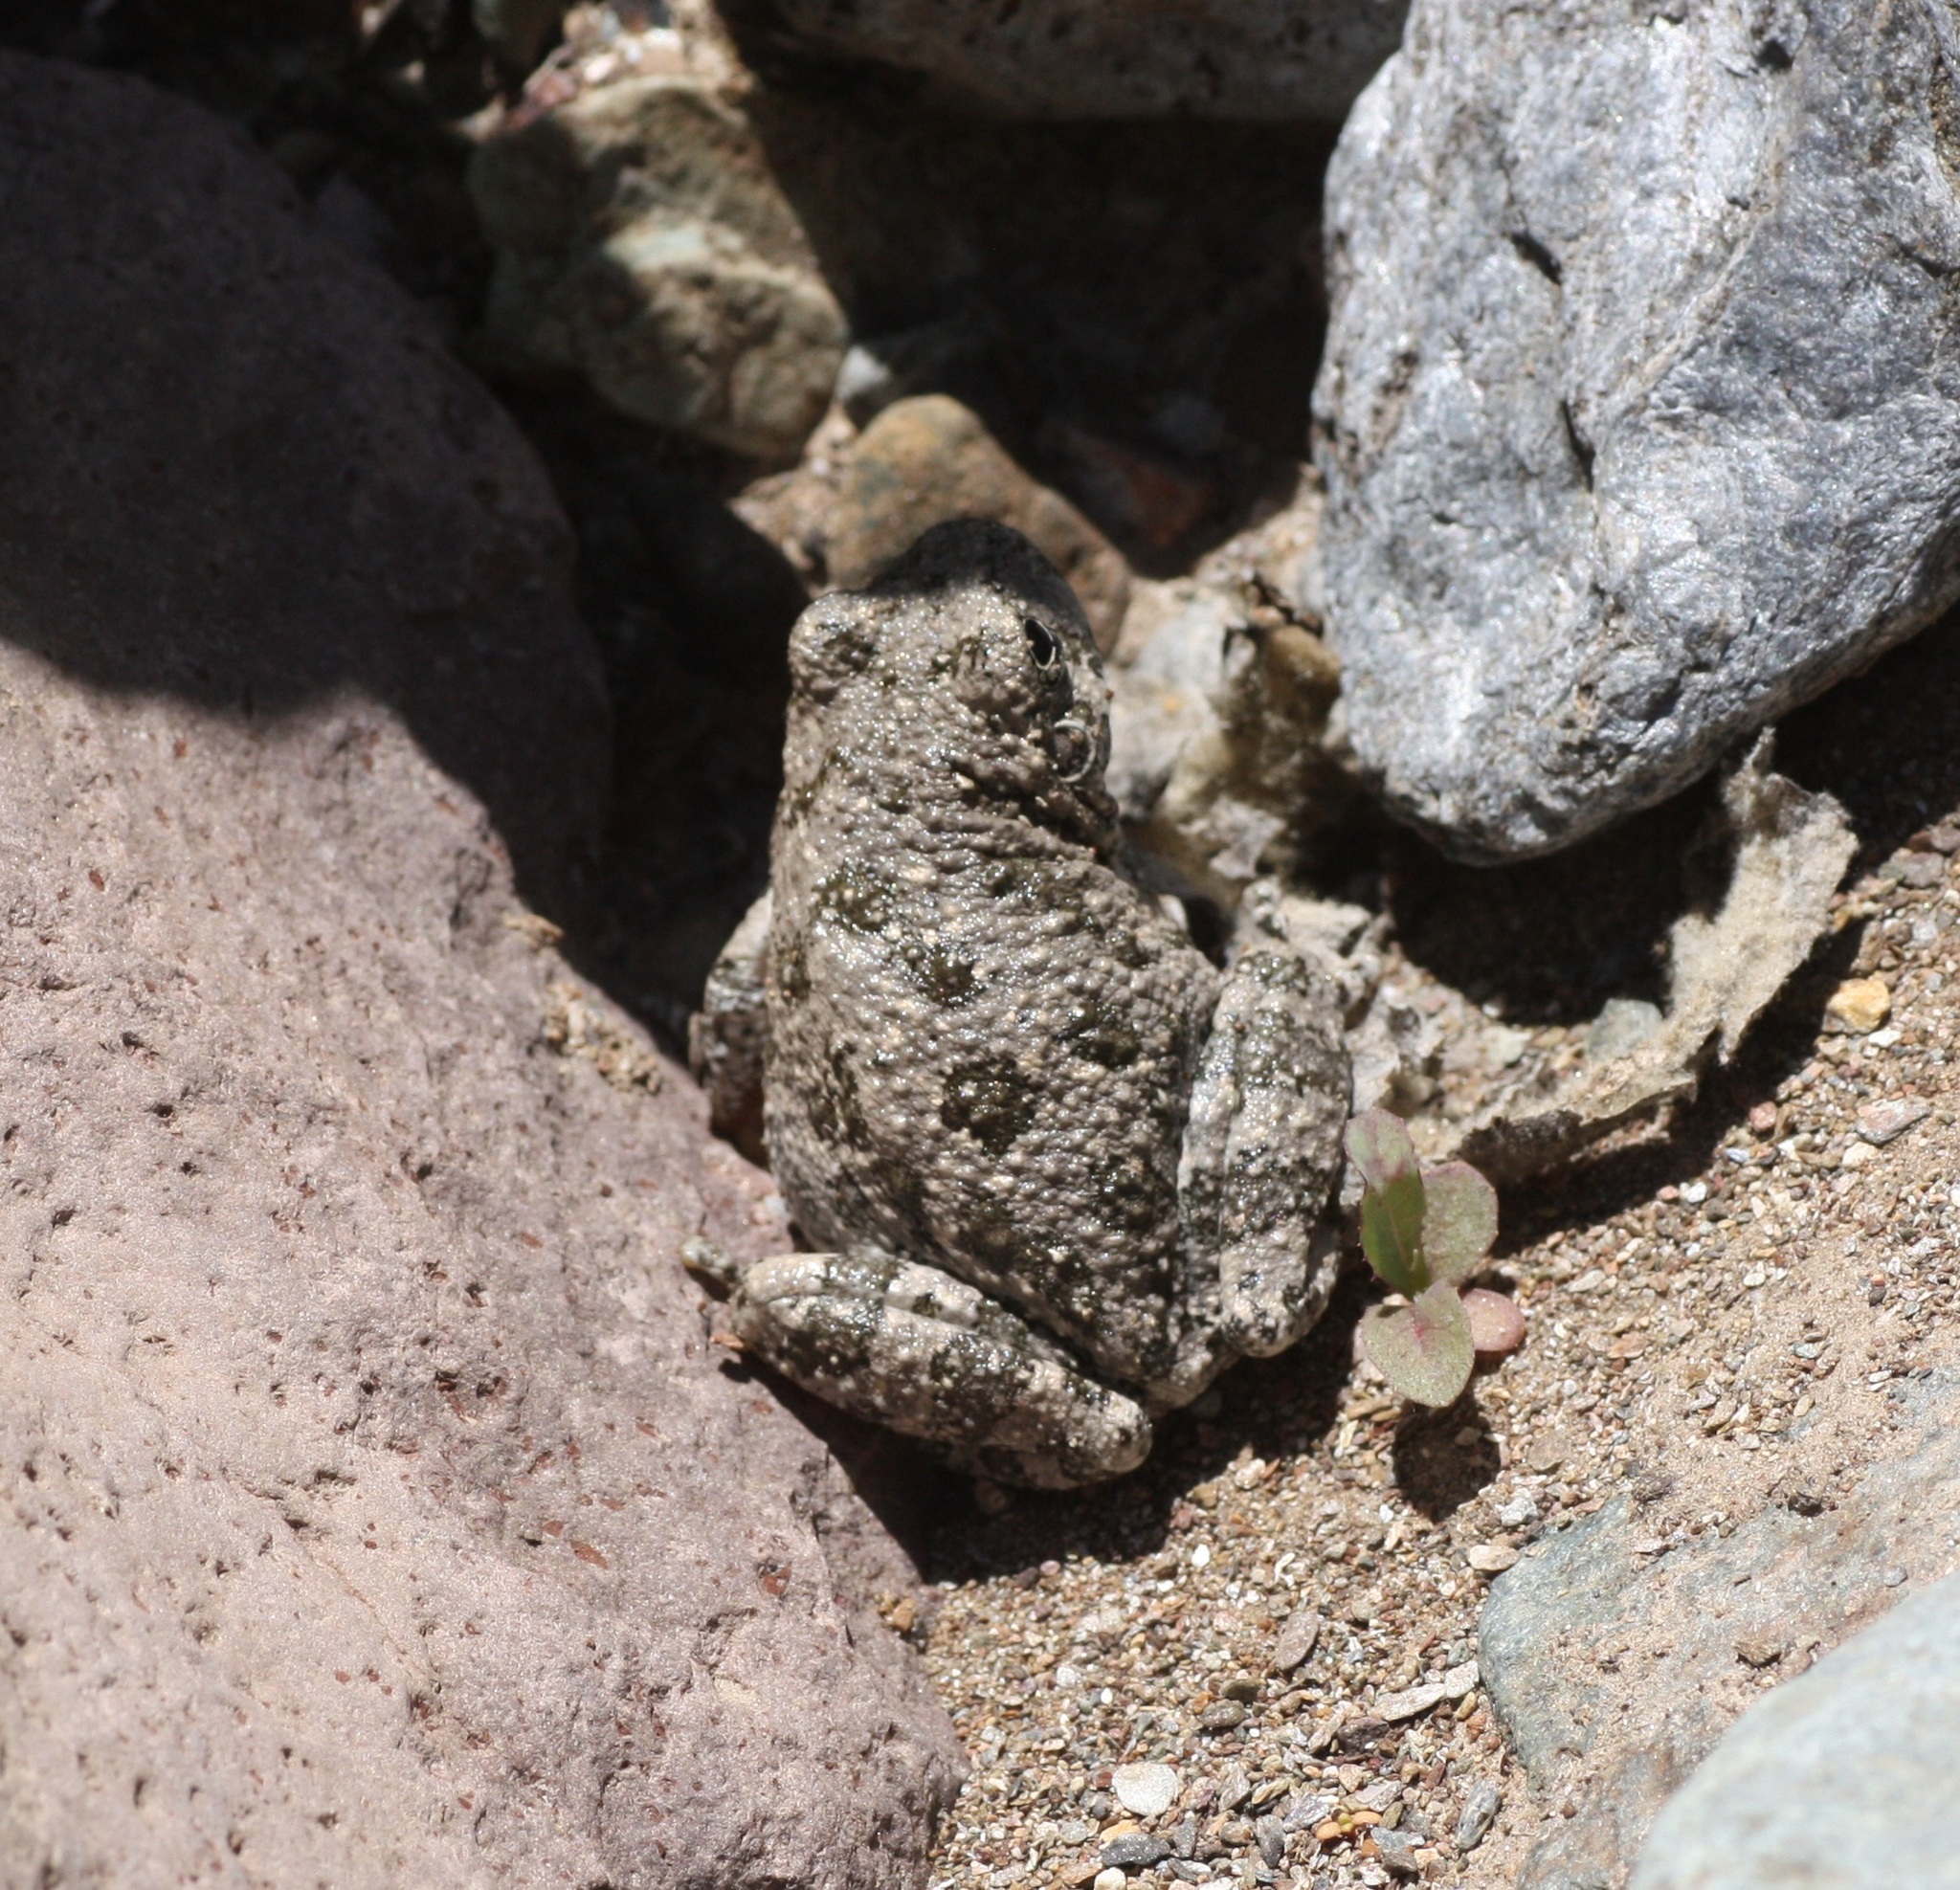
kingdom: Animalia
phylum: Chordata
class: Amphibia
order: Anura
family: Hylidae
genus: Dryophytes
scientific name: Dryophytes arenicolor
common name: Canyon treefrog
